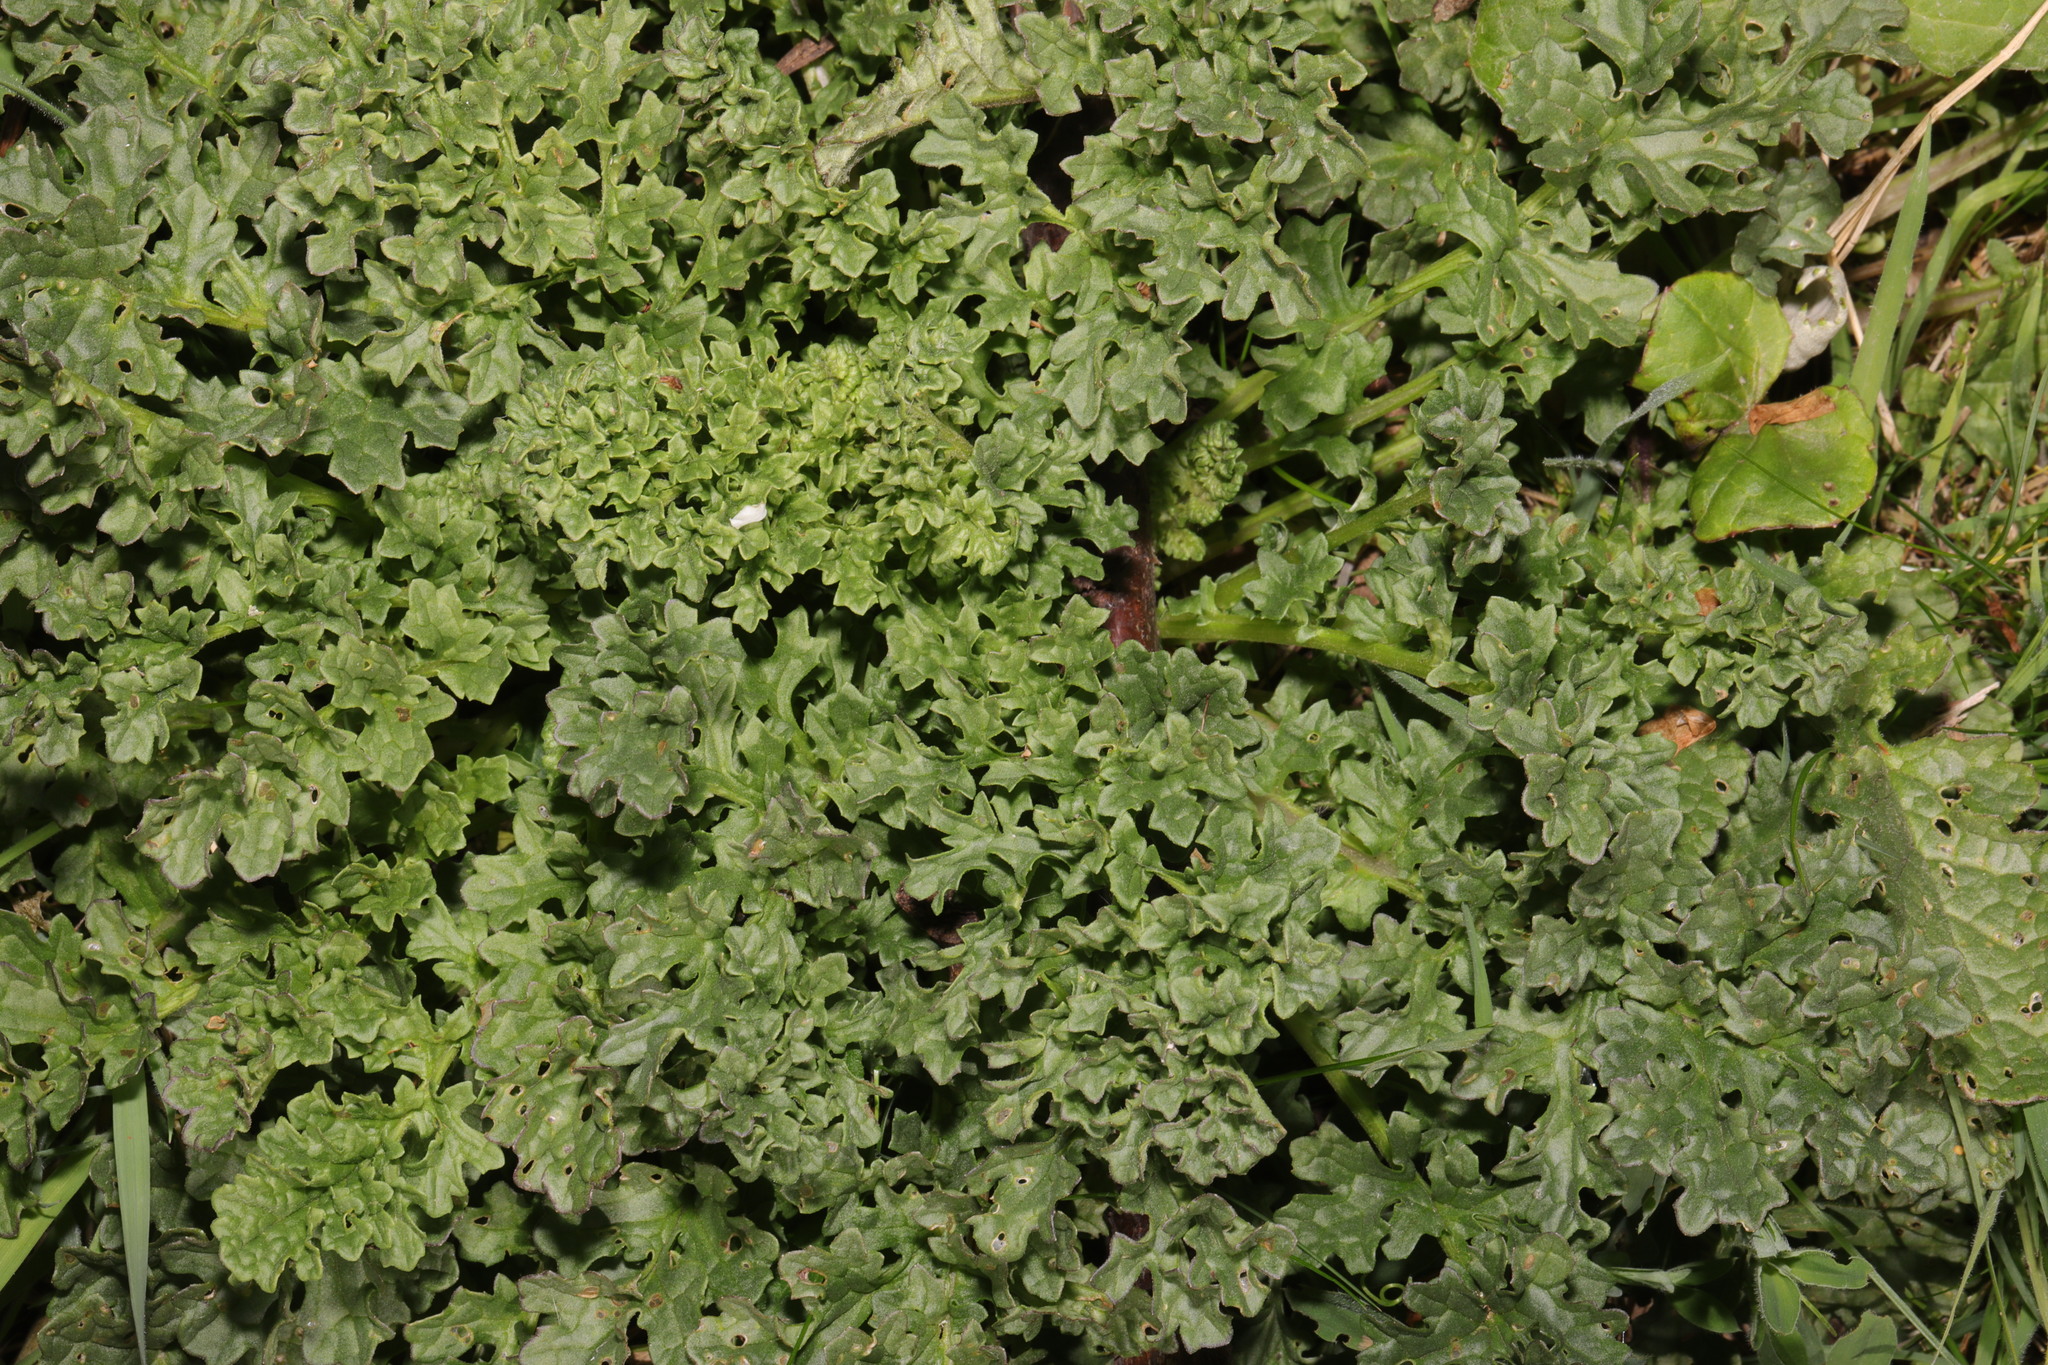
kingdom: Plantae
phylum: Tracheophyta
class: Magnoliopsida
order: Asterales
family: Asteraceae
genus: Jacobaea
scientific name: Jacobaea vulgaris
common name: Stinking willie
